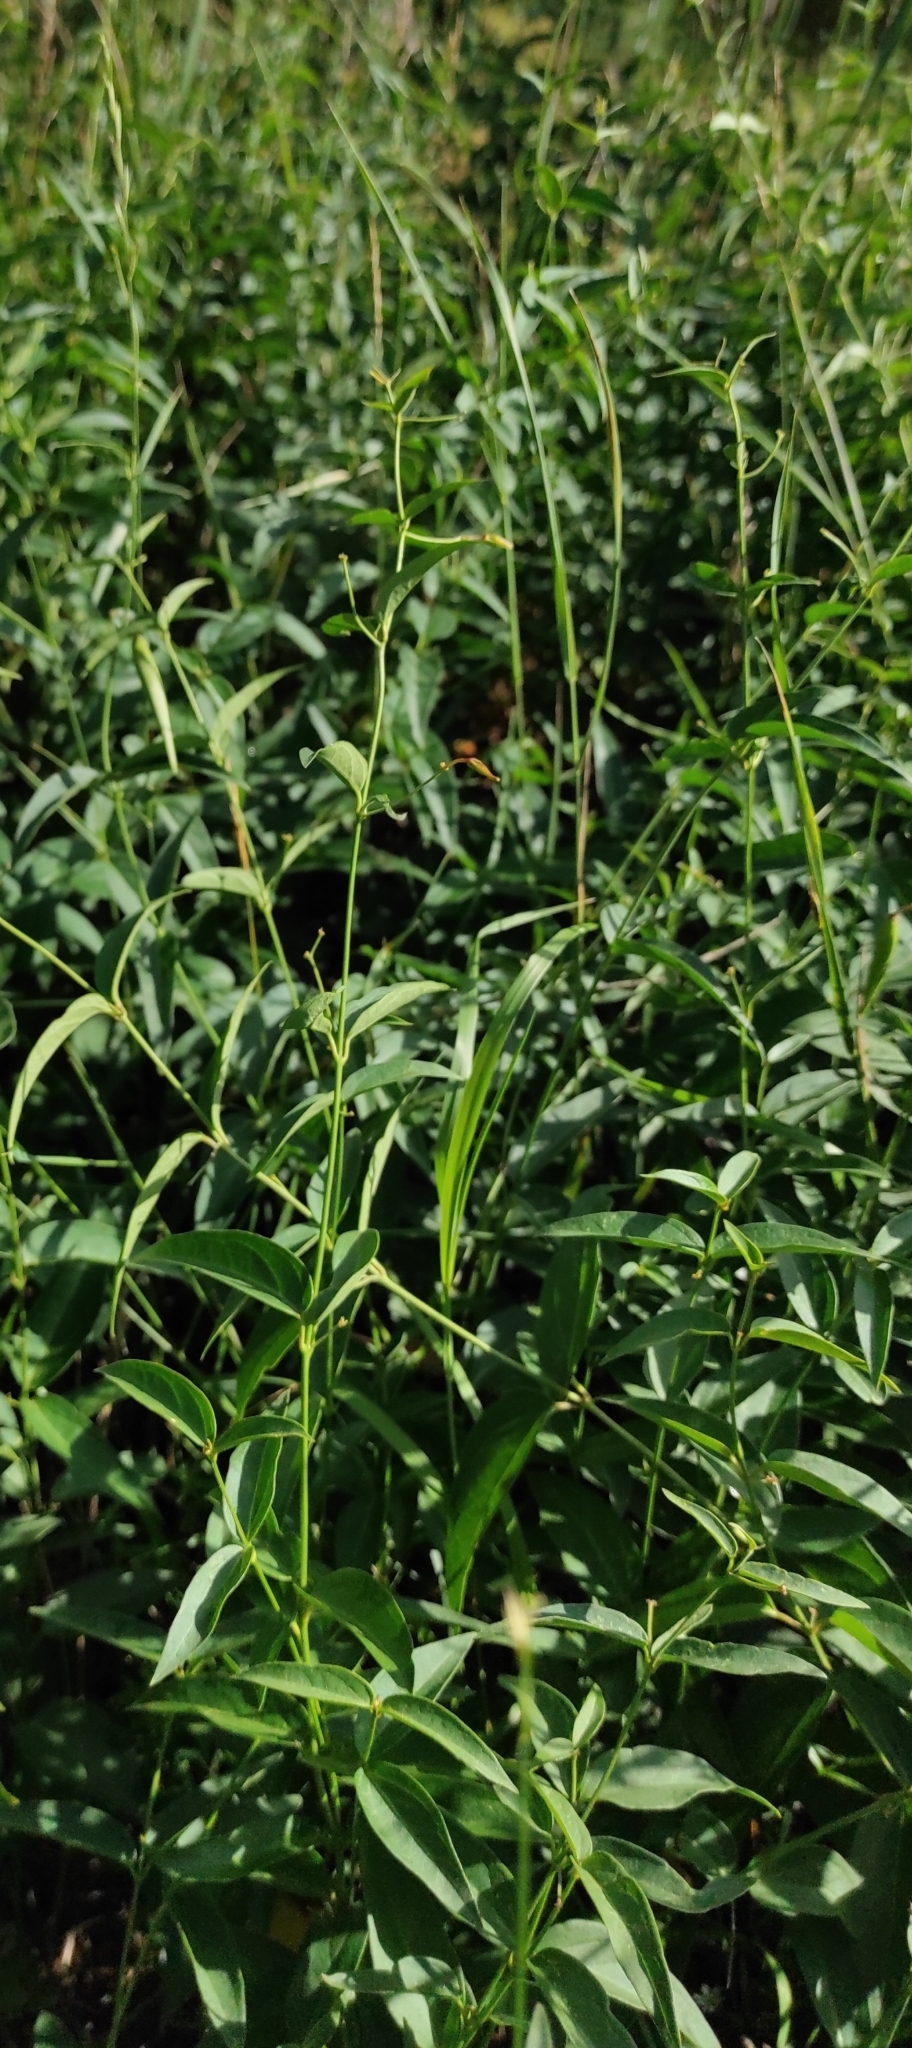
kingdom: Plantae
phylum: Tracheophyta
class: Magnoliopsida
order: Gentianales
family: Apocynaceae
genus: Vincetoxicum
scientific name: Vincetoxicum hirundinaria
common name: White swallowwort
